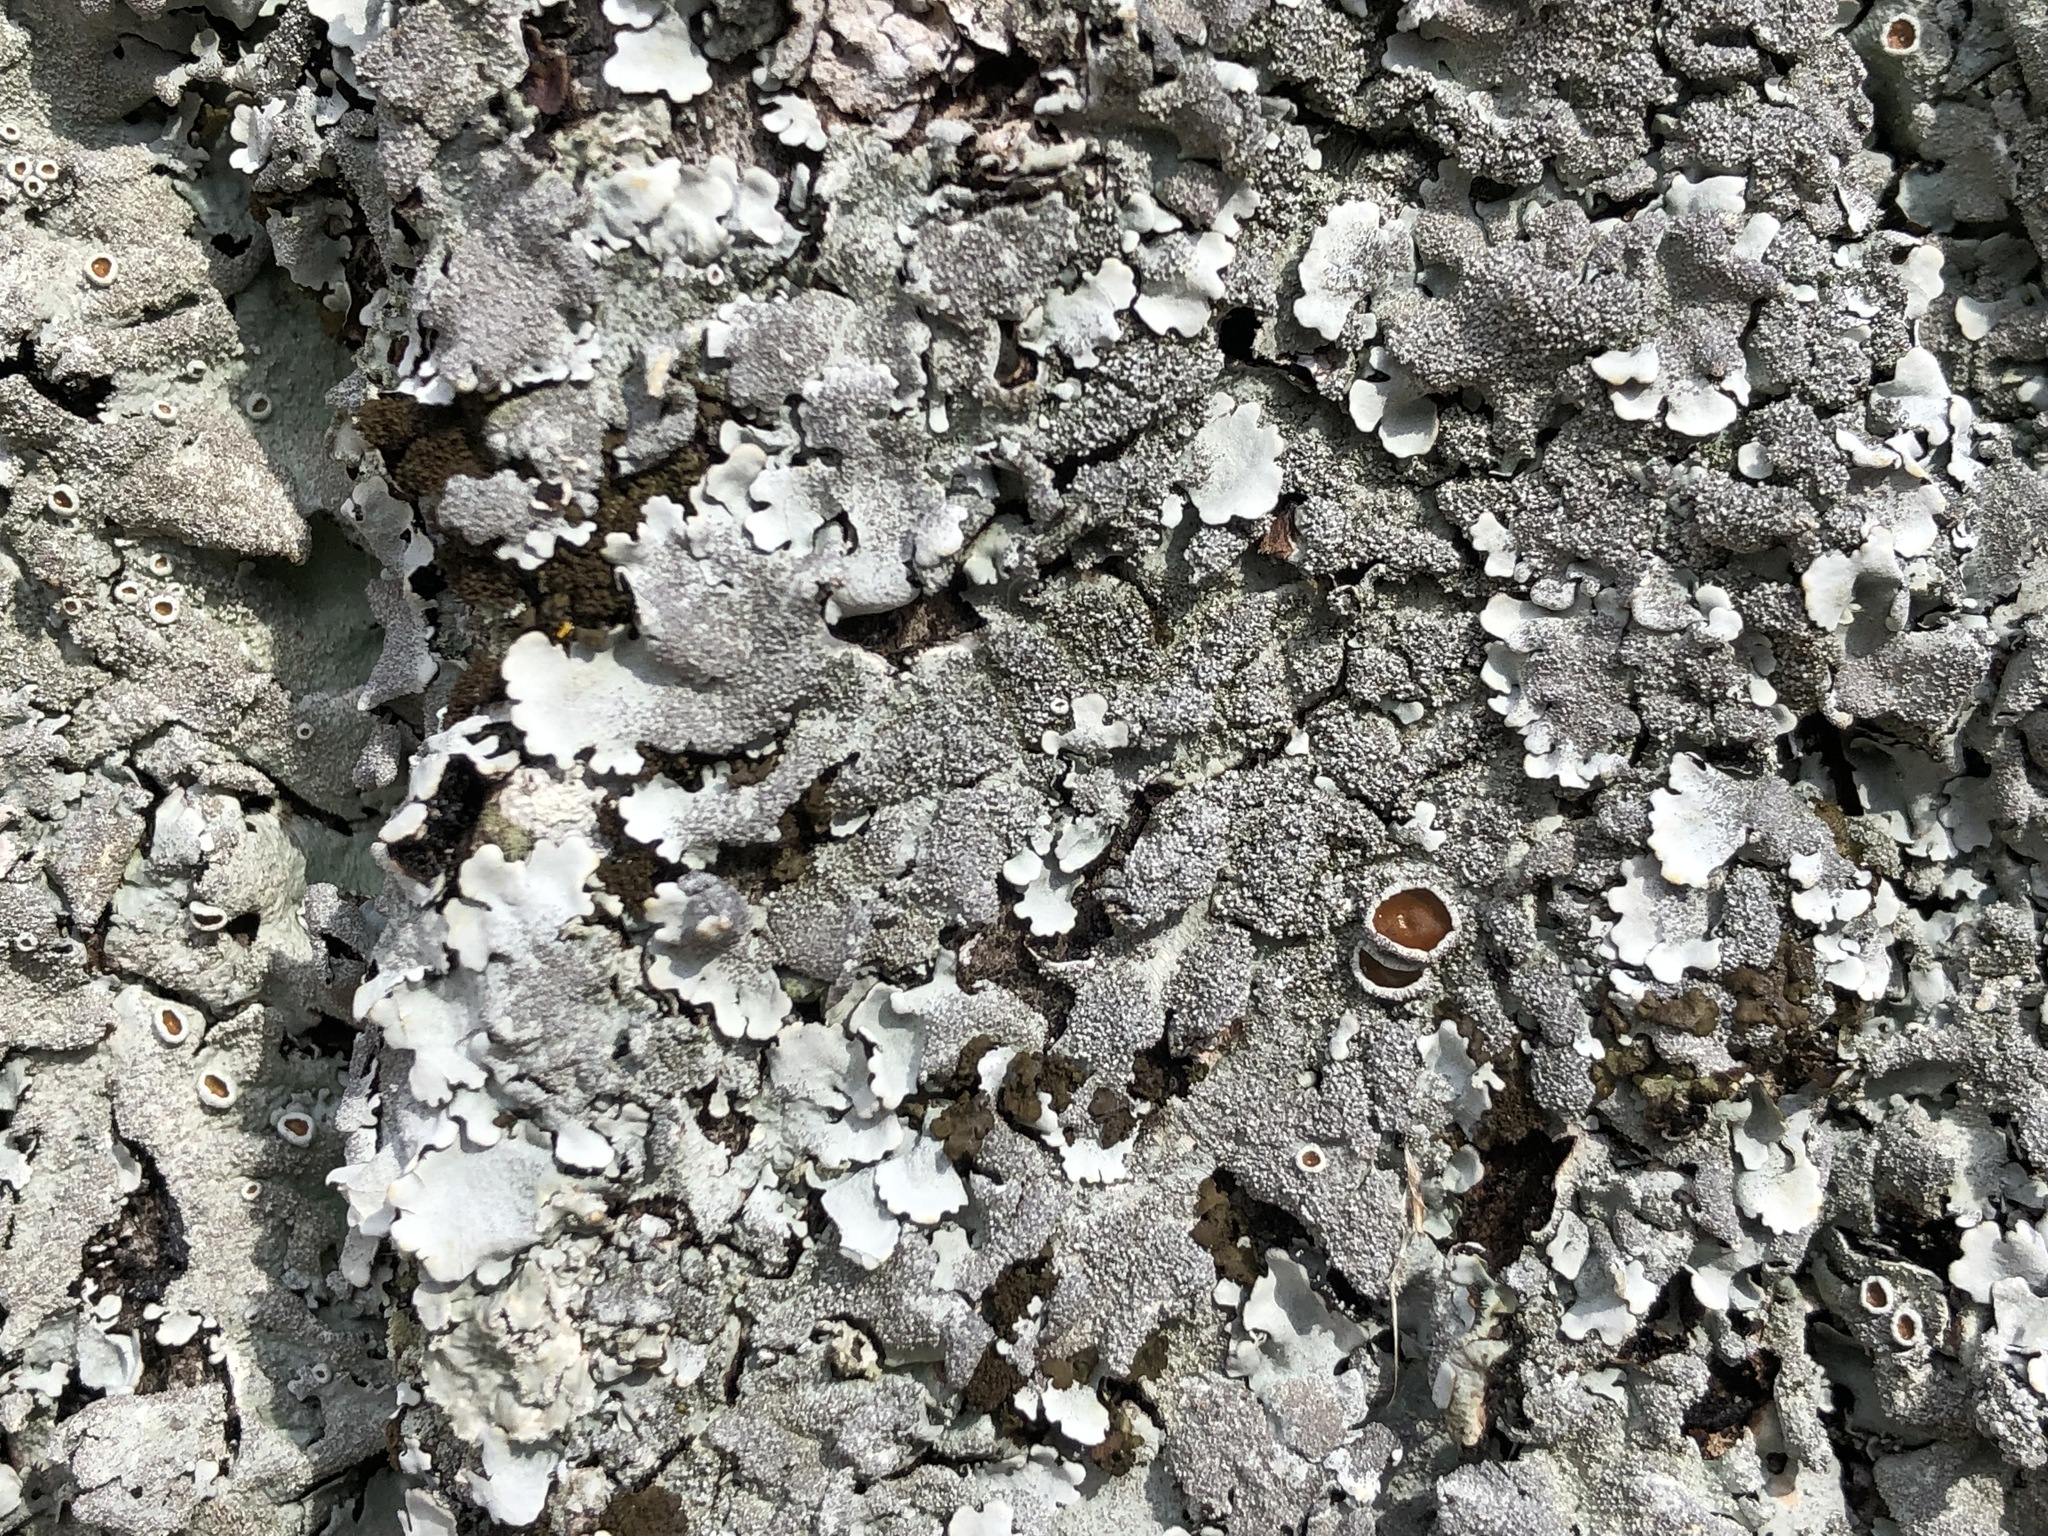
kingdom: Fungi
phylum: Ascomycota
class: Lecanoromycetes
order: Lecanorales
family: Parmeliaceae
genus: Parmelina
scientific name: Parmelina tiliacea
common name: Linden shield lichen
